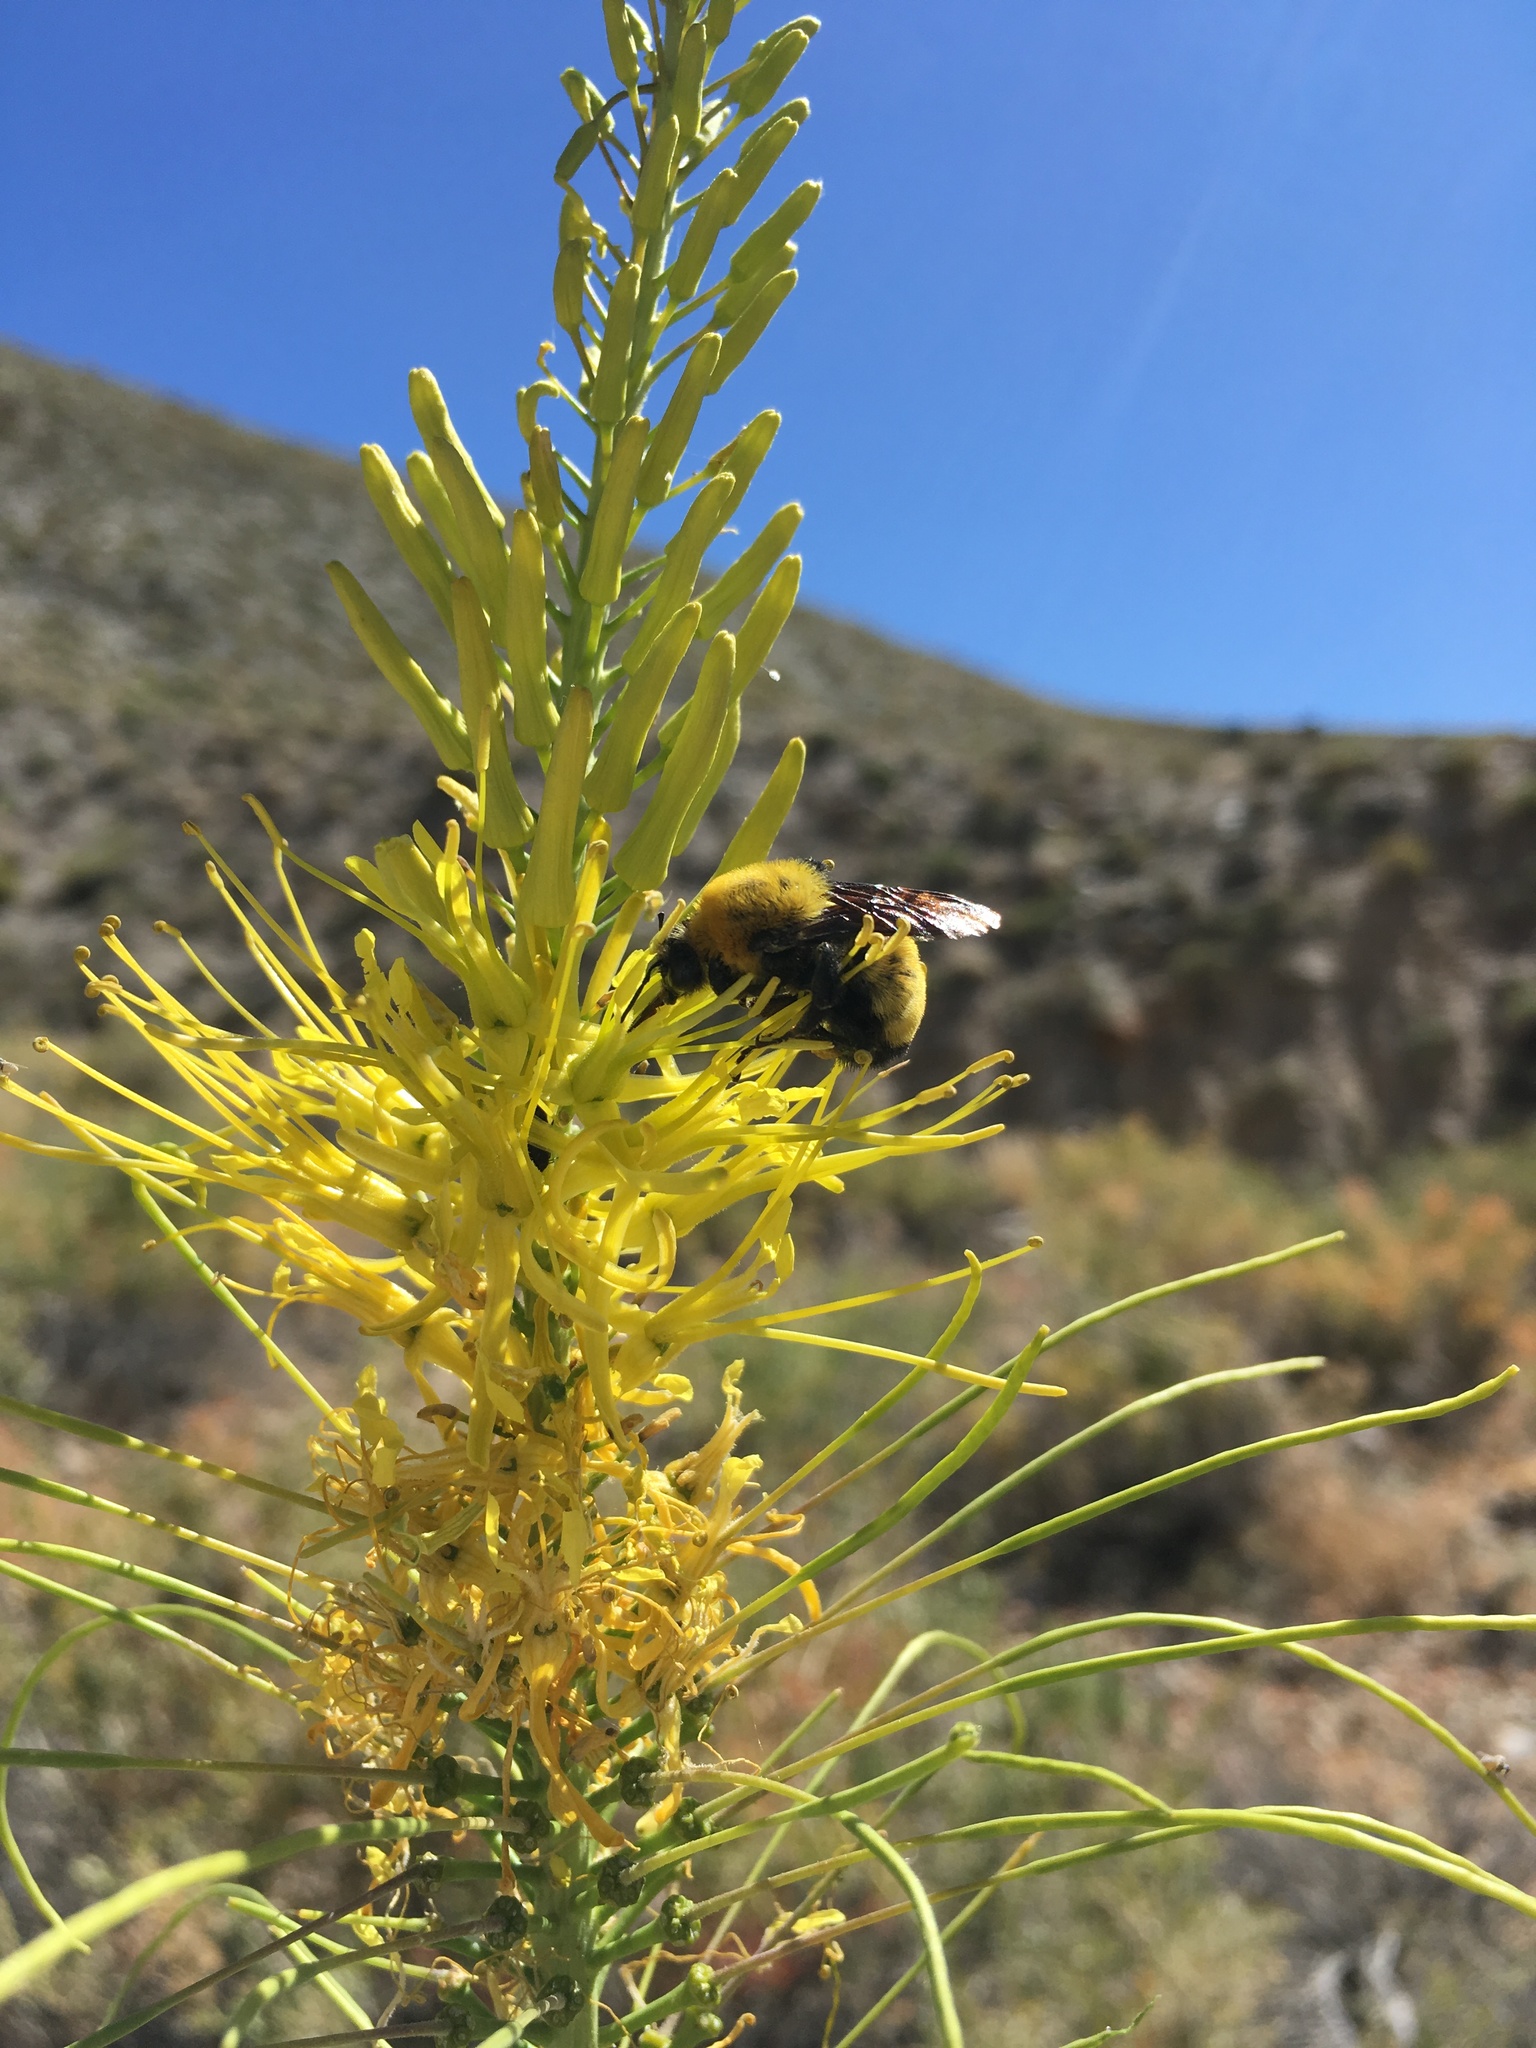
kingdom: Animalia
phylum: Arthropoda
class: Insecta
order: Hymenoptera
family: Apidae
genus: Bombus
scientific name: Bombus morrisoni
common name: Morrison bumble bee
